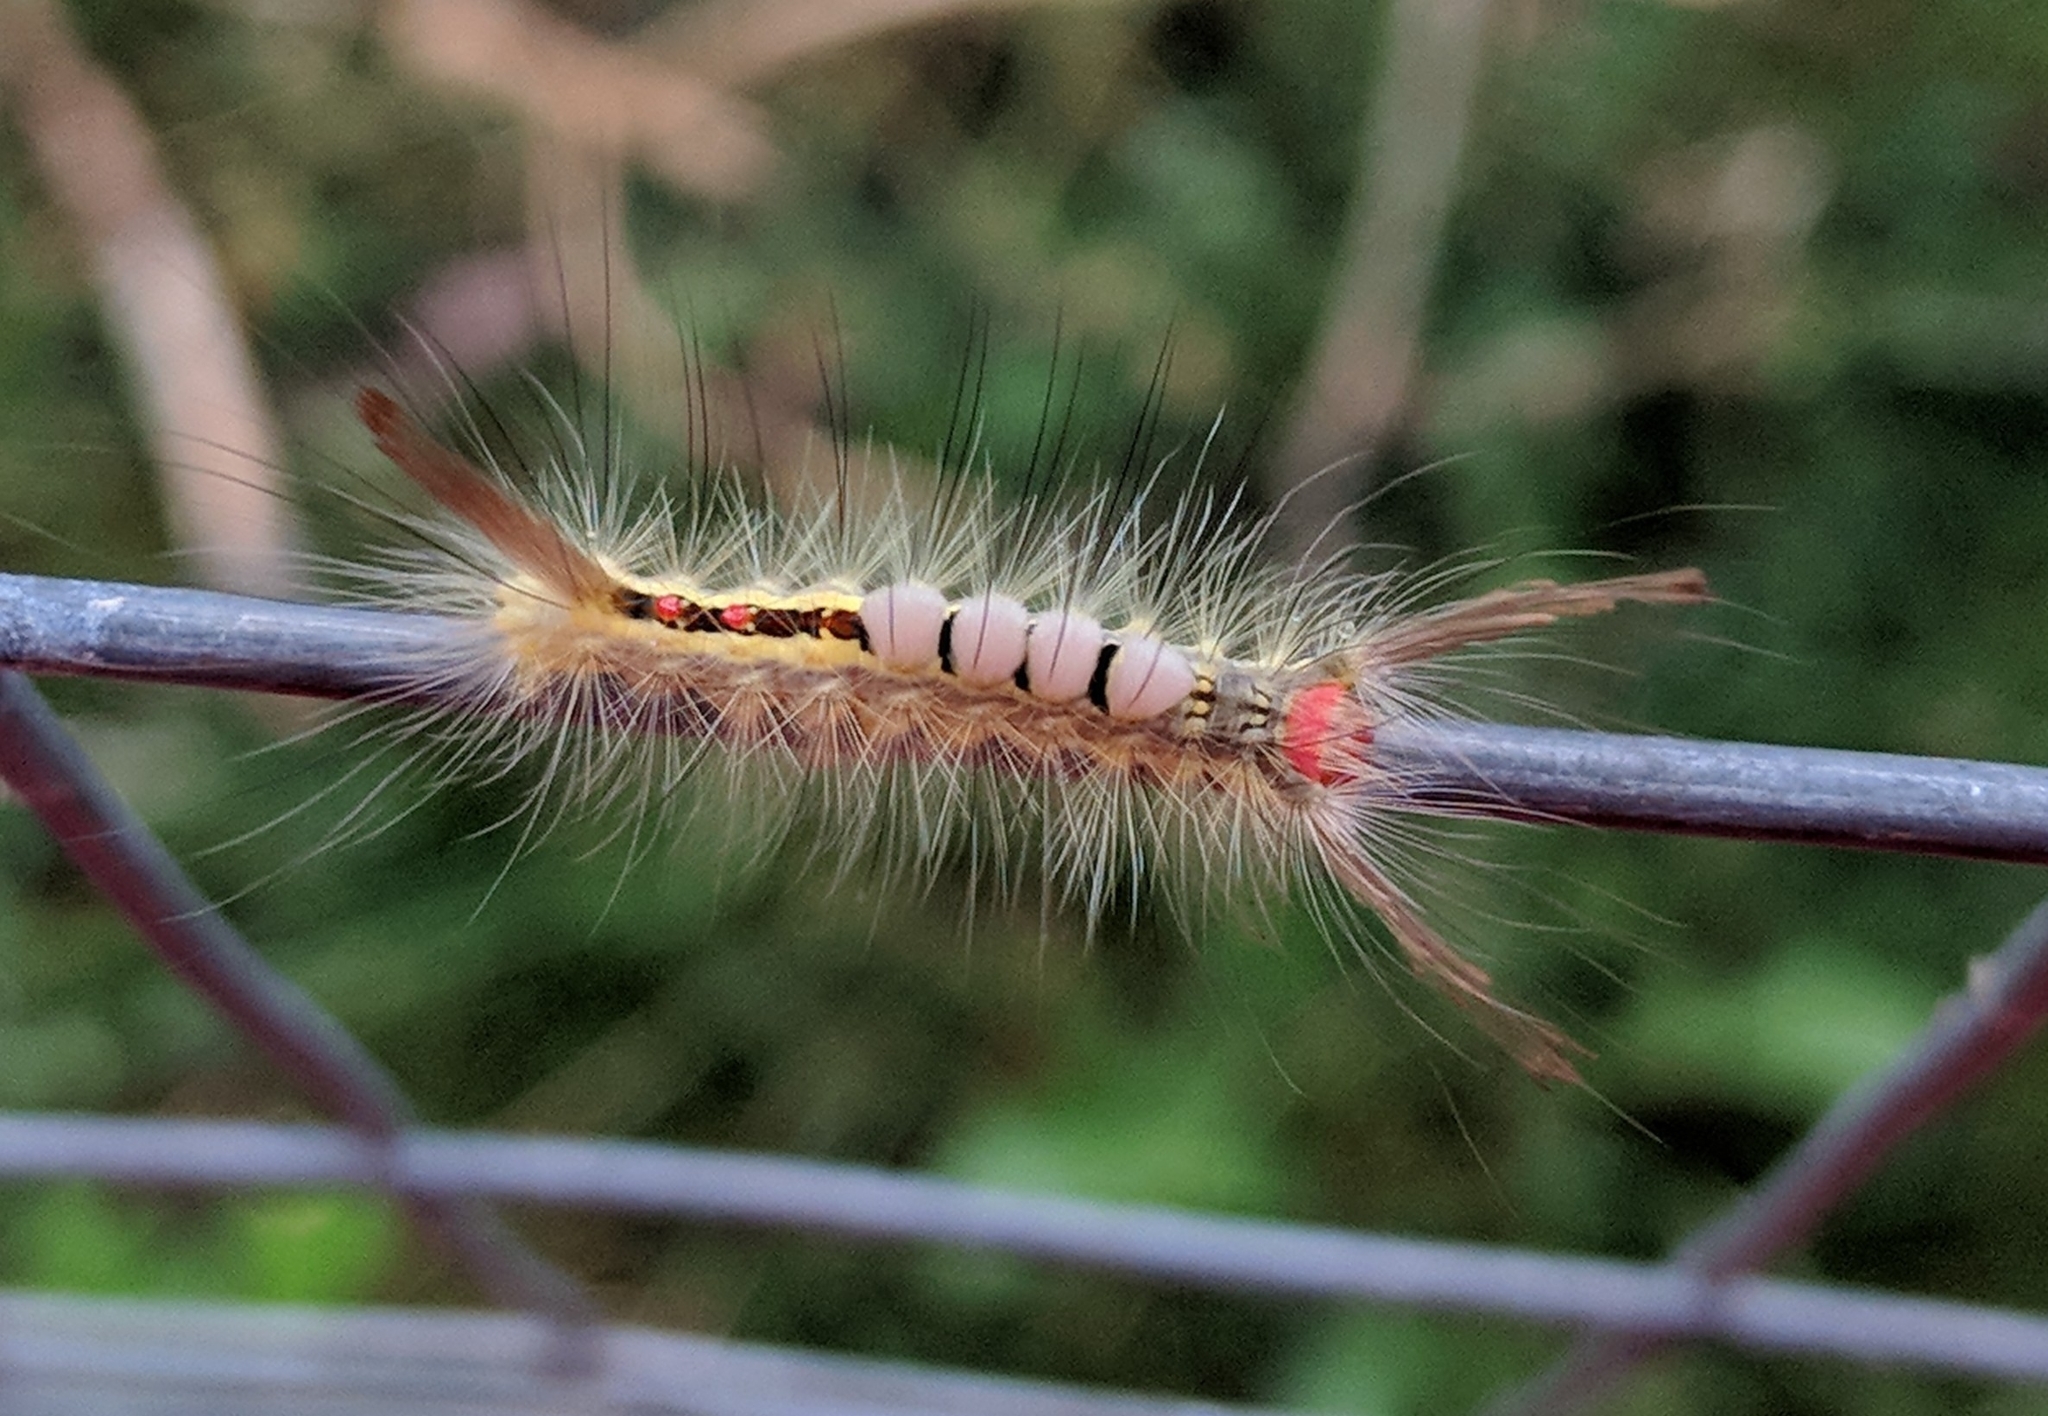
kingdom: Animalia
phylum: Arthropoda
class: Insecta
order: Lepidoptera
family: Erebidae
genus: Orgyia
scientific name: Orgyia leucostigma
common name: White-marked tussock moth
